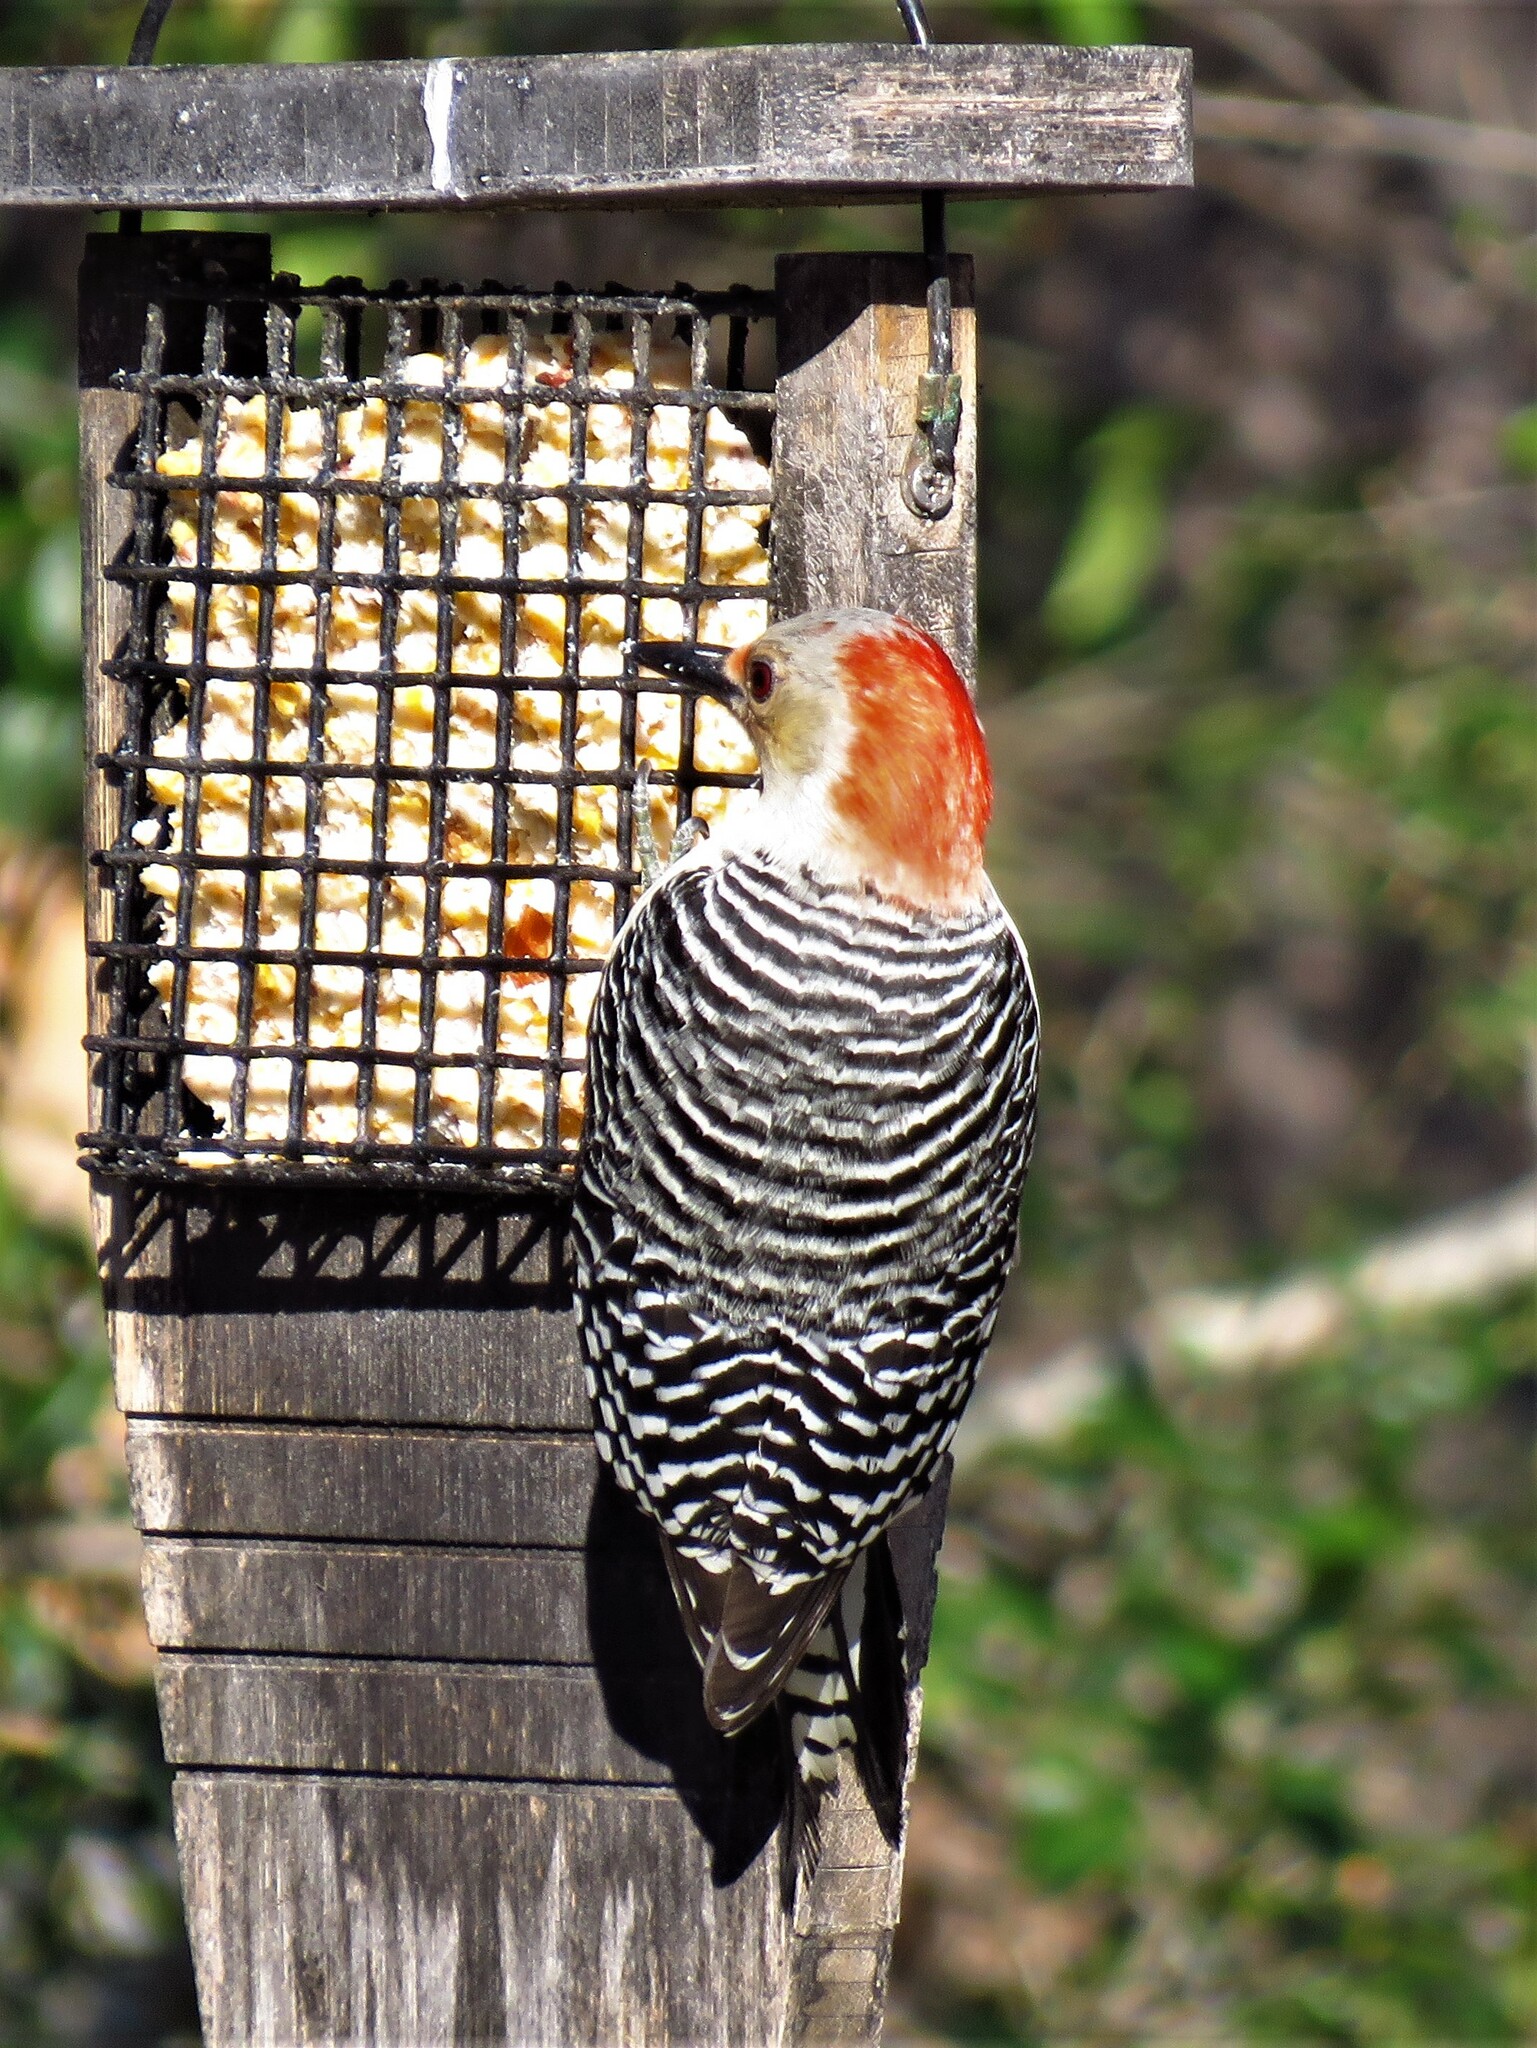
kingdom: Animalia
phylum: Chordata
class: Aves
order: Piciformes
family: Picidae
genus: Melanerpes
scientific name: Melanerpes carolinus
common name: Red-bellied woodpecker
